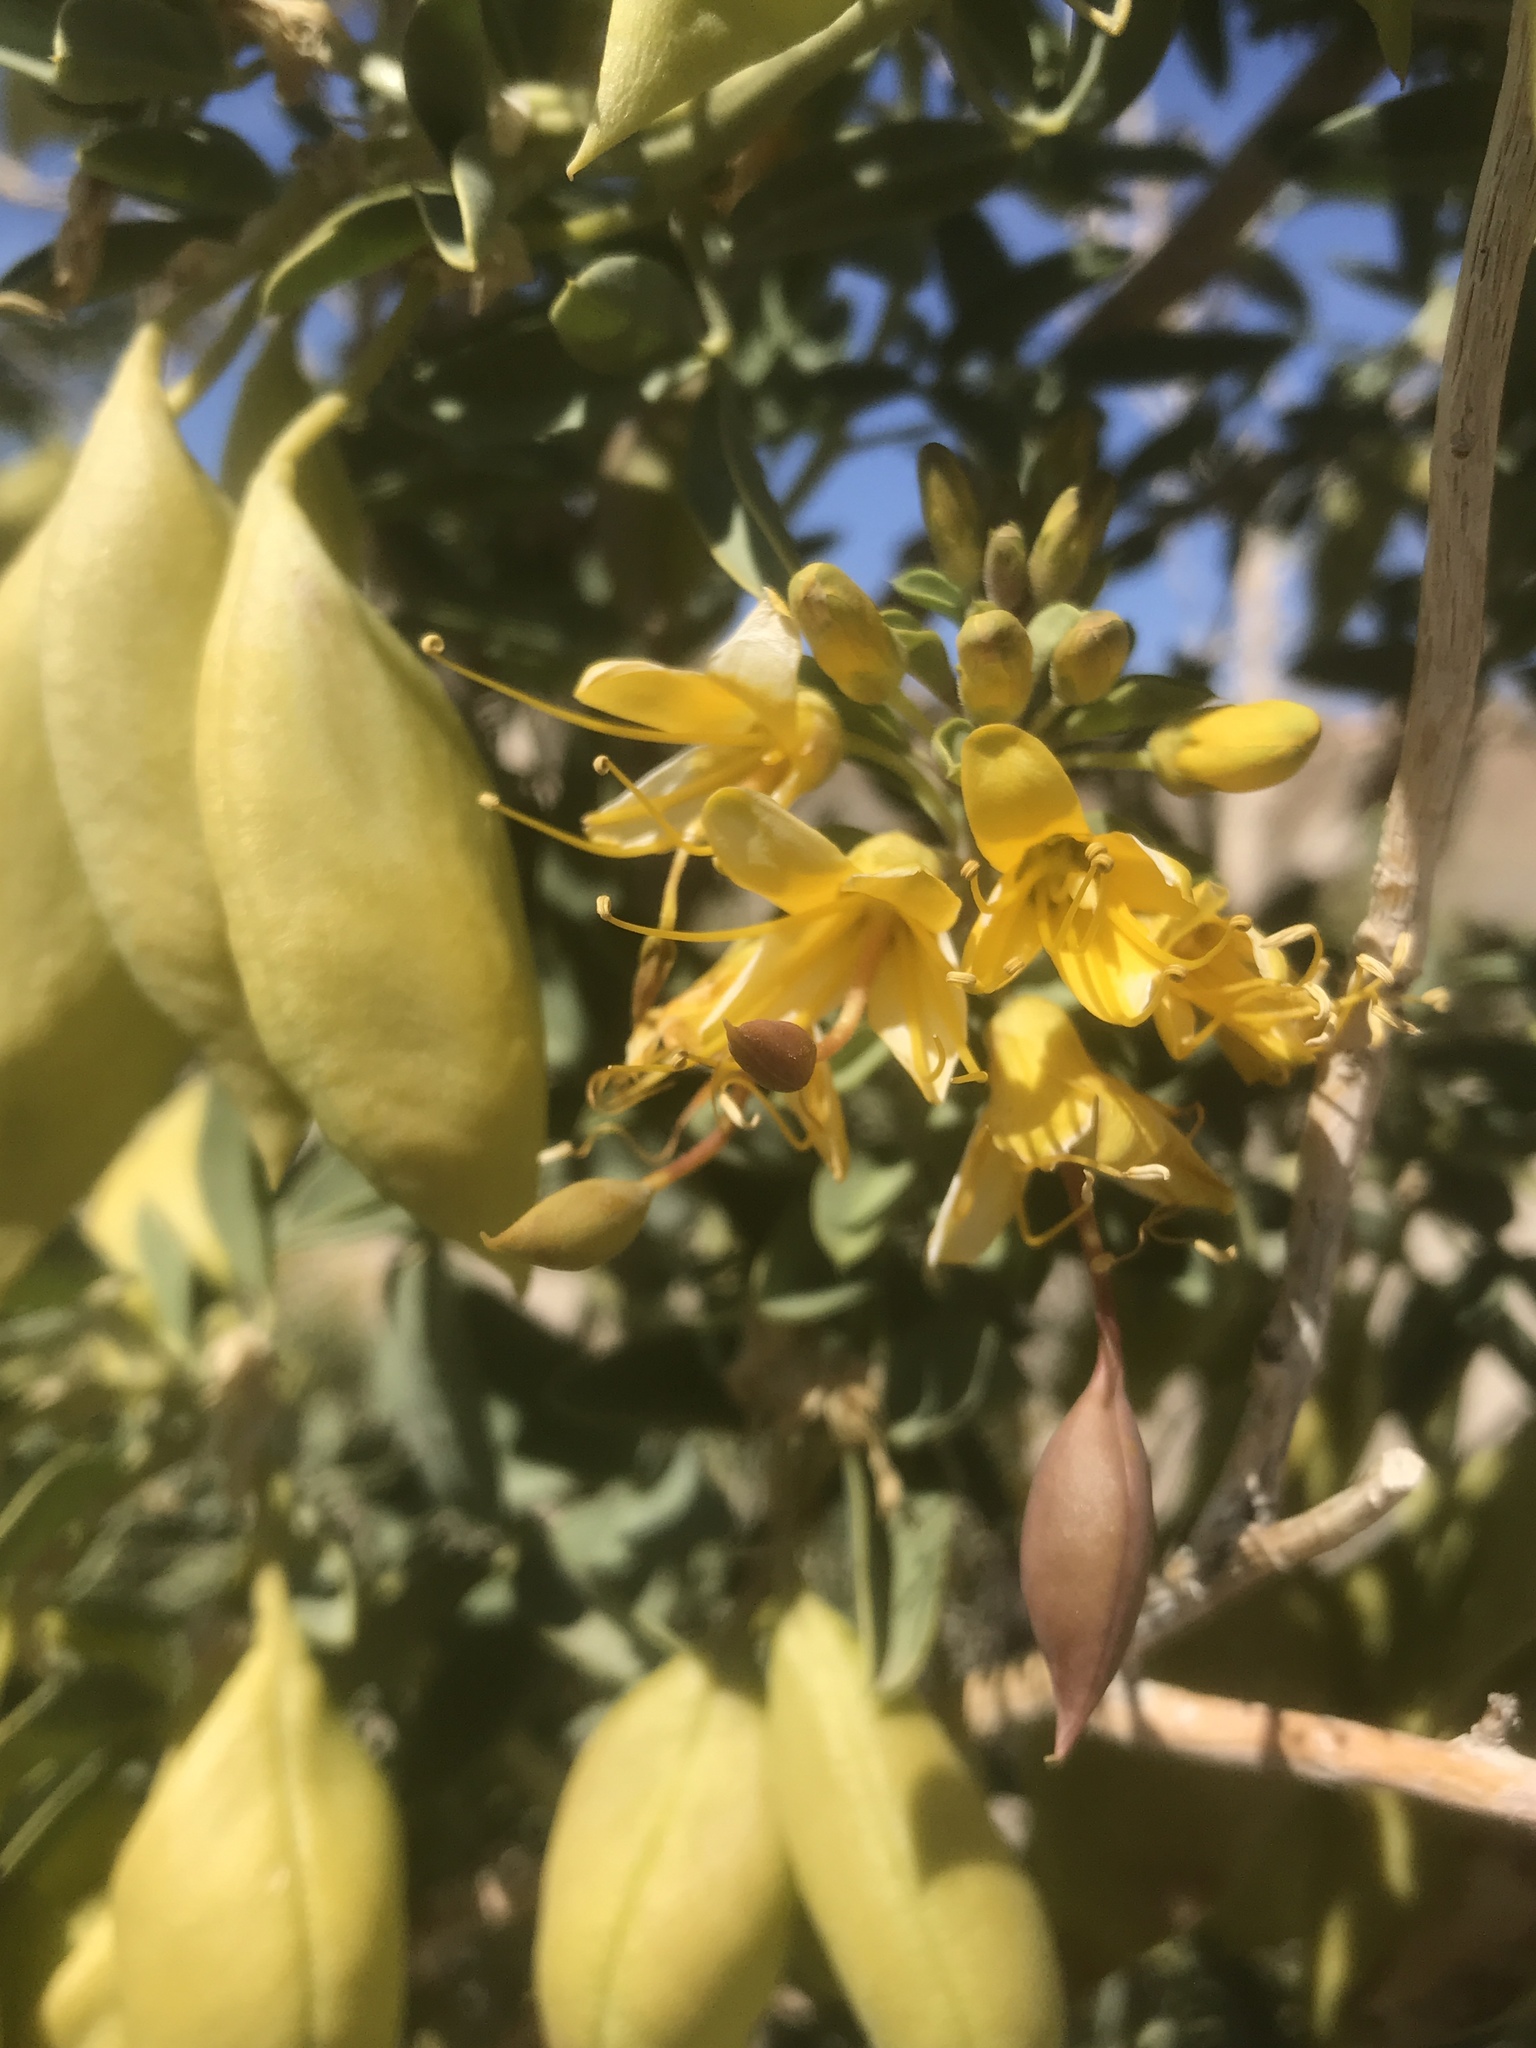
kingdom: Plantae
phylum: Tracheophyta
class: Magnoliopsida
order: Brassicales
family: Cleomaceae
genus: Cleomella
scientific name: Cleomella arborea
